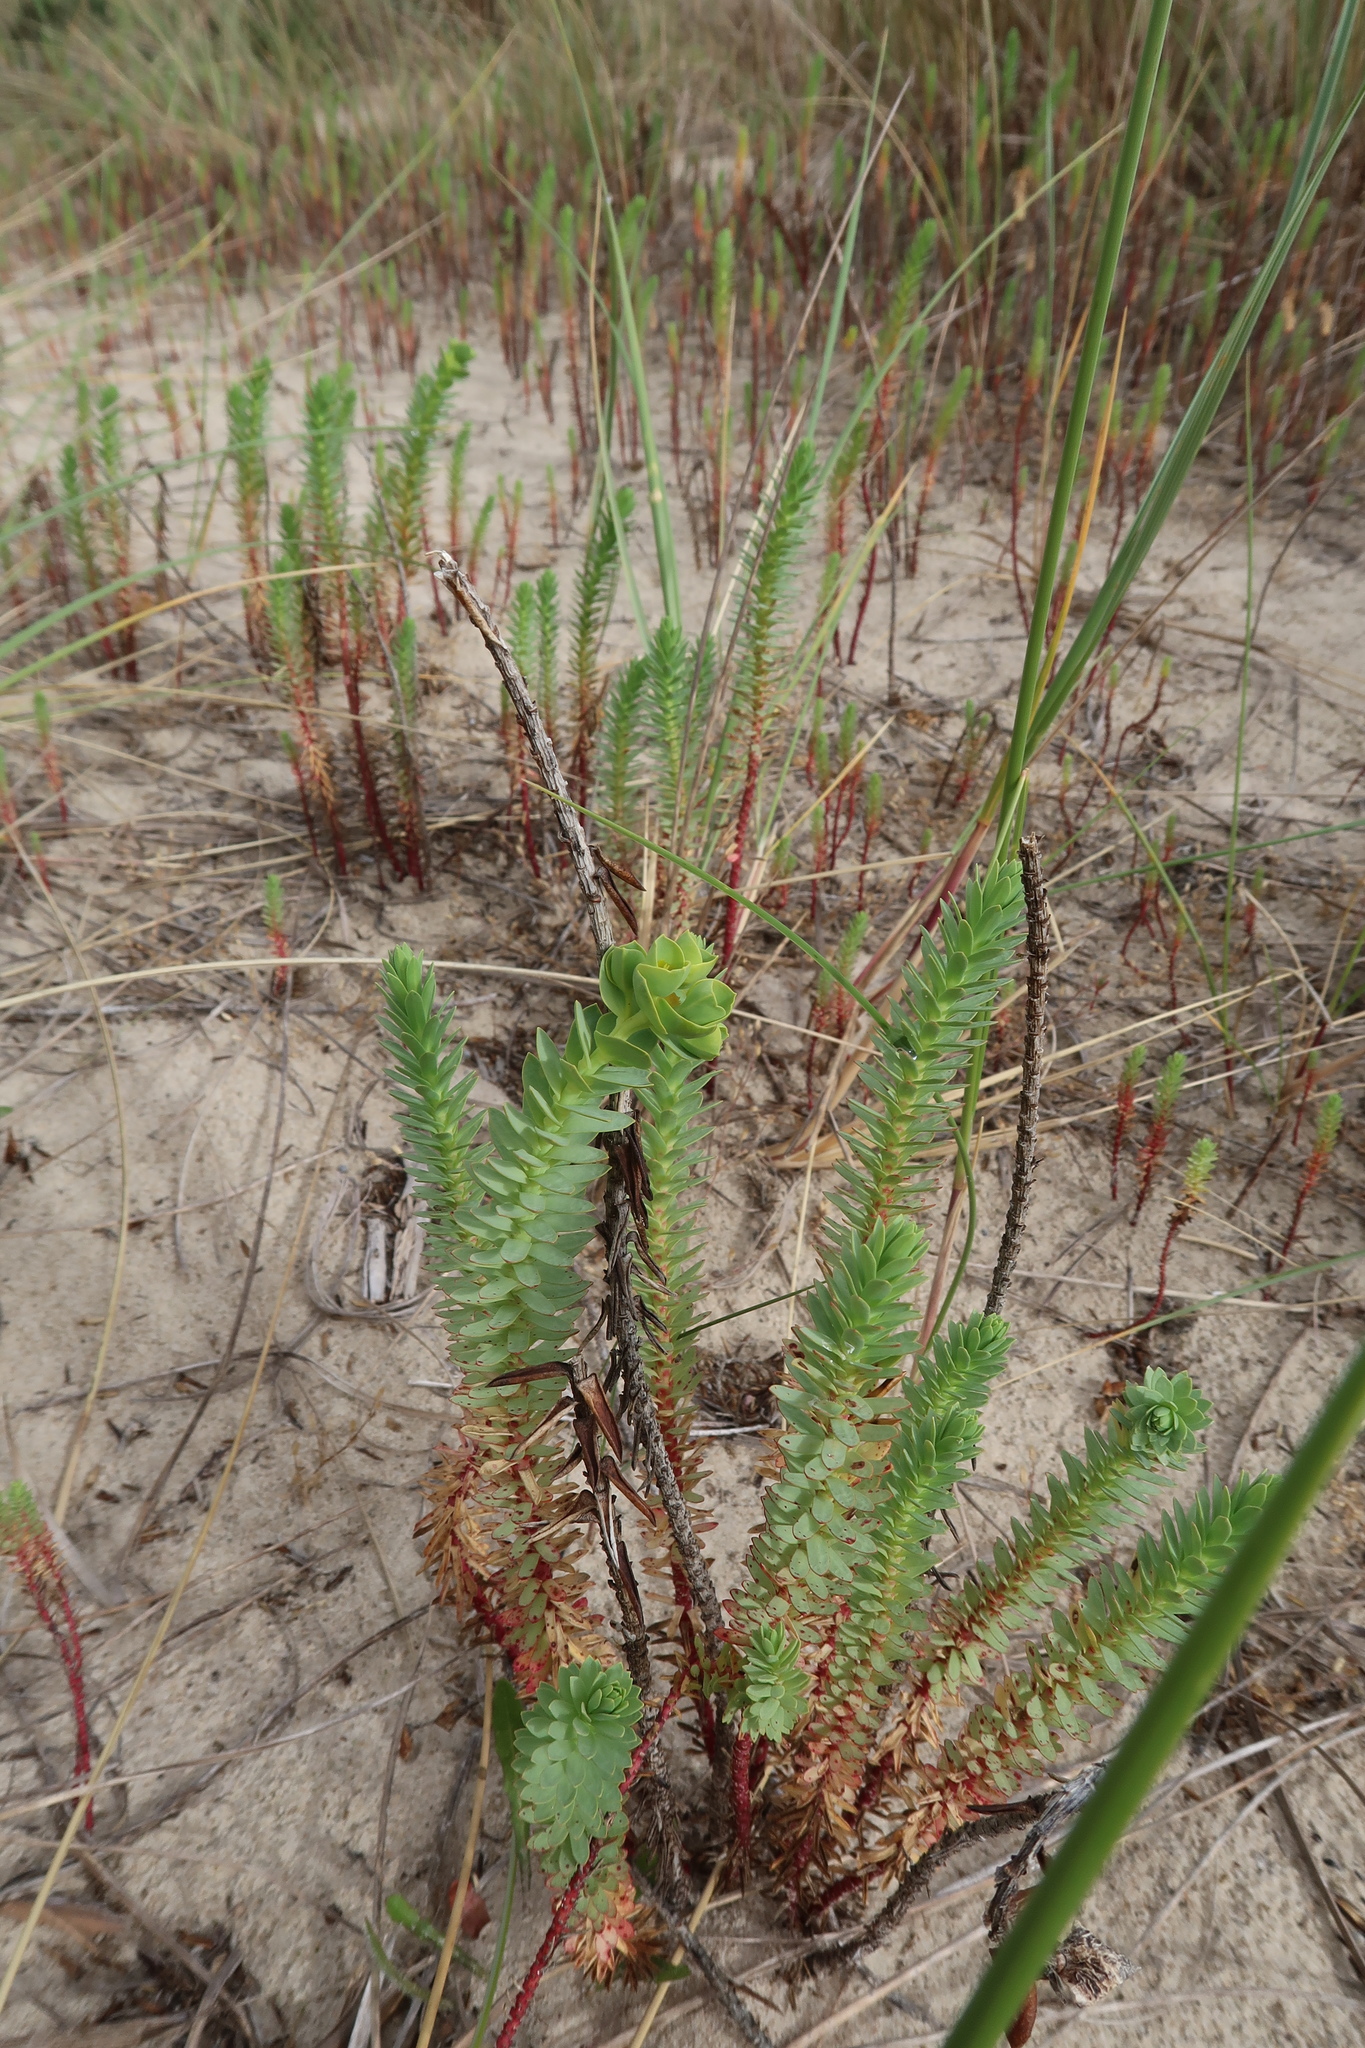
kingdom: Plantae
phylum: Tracheophyta
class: Magnoliopsida
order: Malpighiales
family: Euphorbiaceae
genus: Euphorbia
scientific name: Euphorbia paralias
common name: Sea spurge
